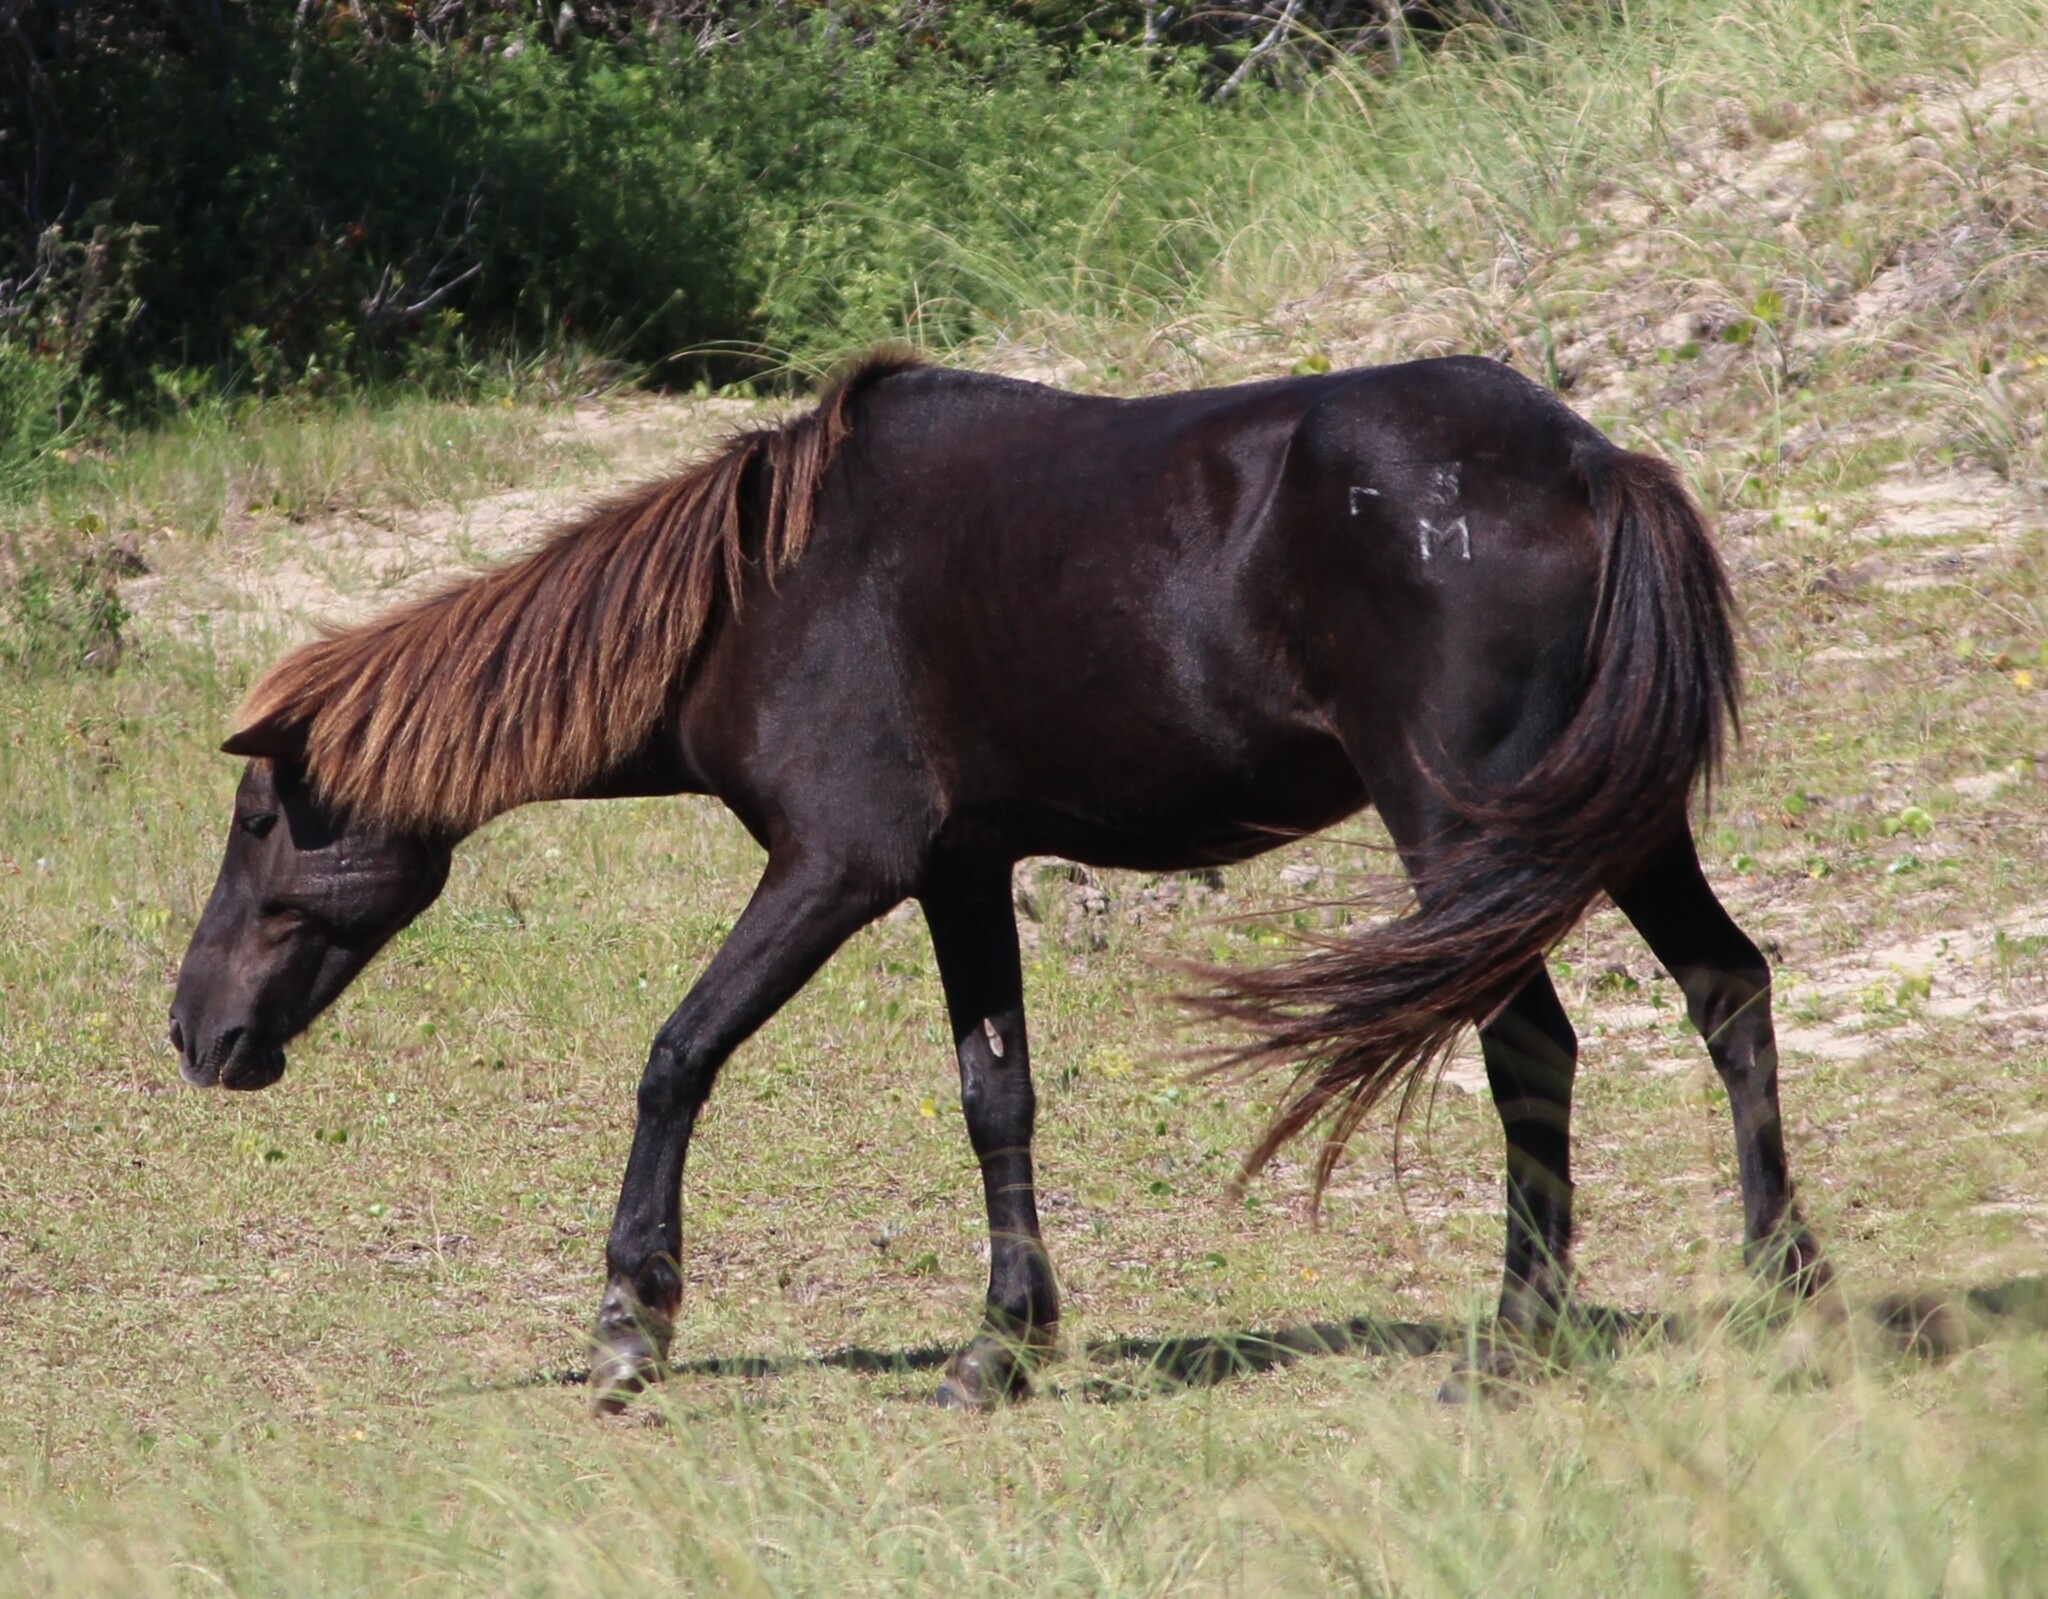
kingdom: Animalia
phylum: Chordata
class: Mammalia
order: Perissodactyla
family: Equidae
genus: Equus
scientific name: Equus caballus
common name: Horse
